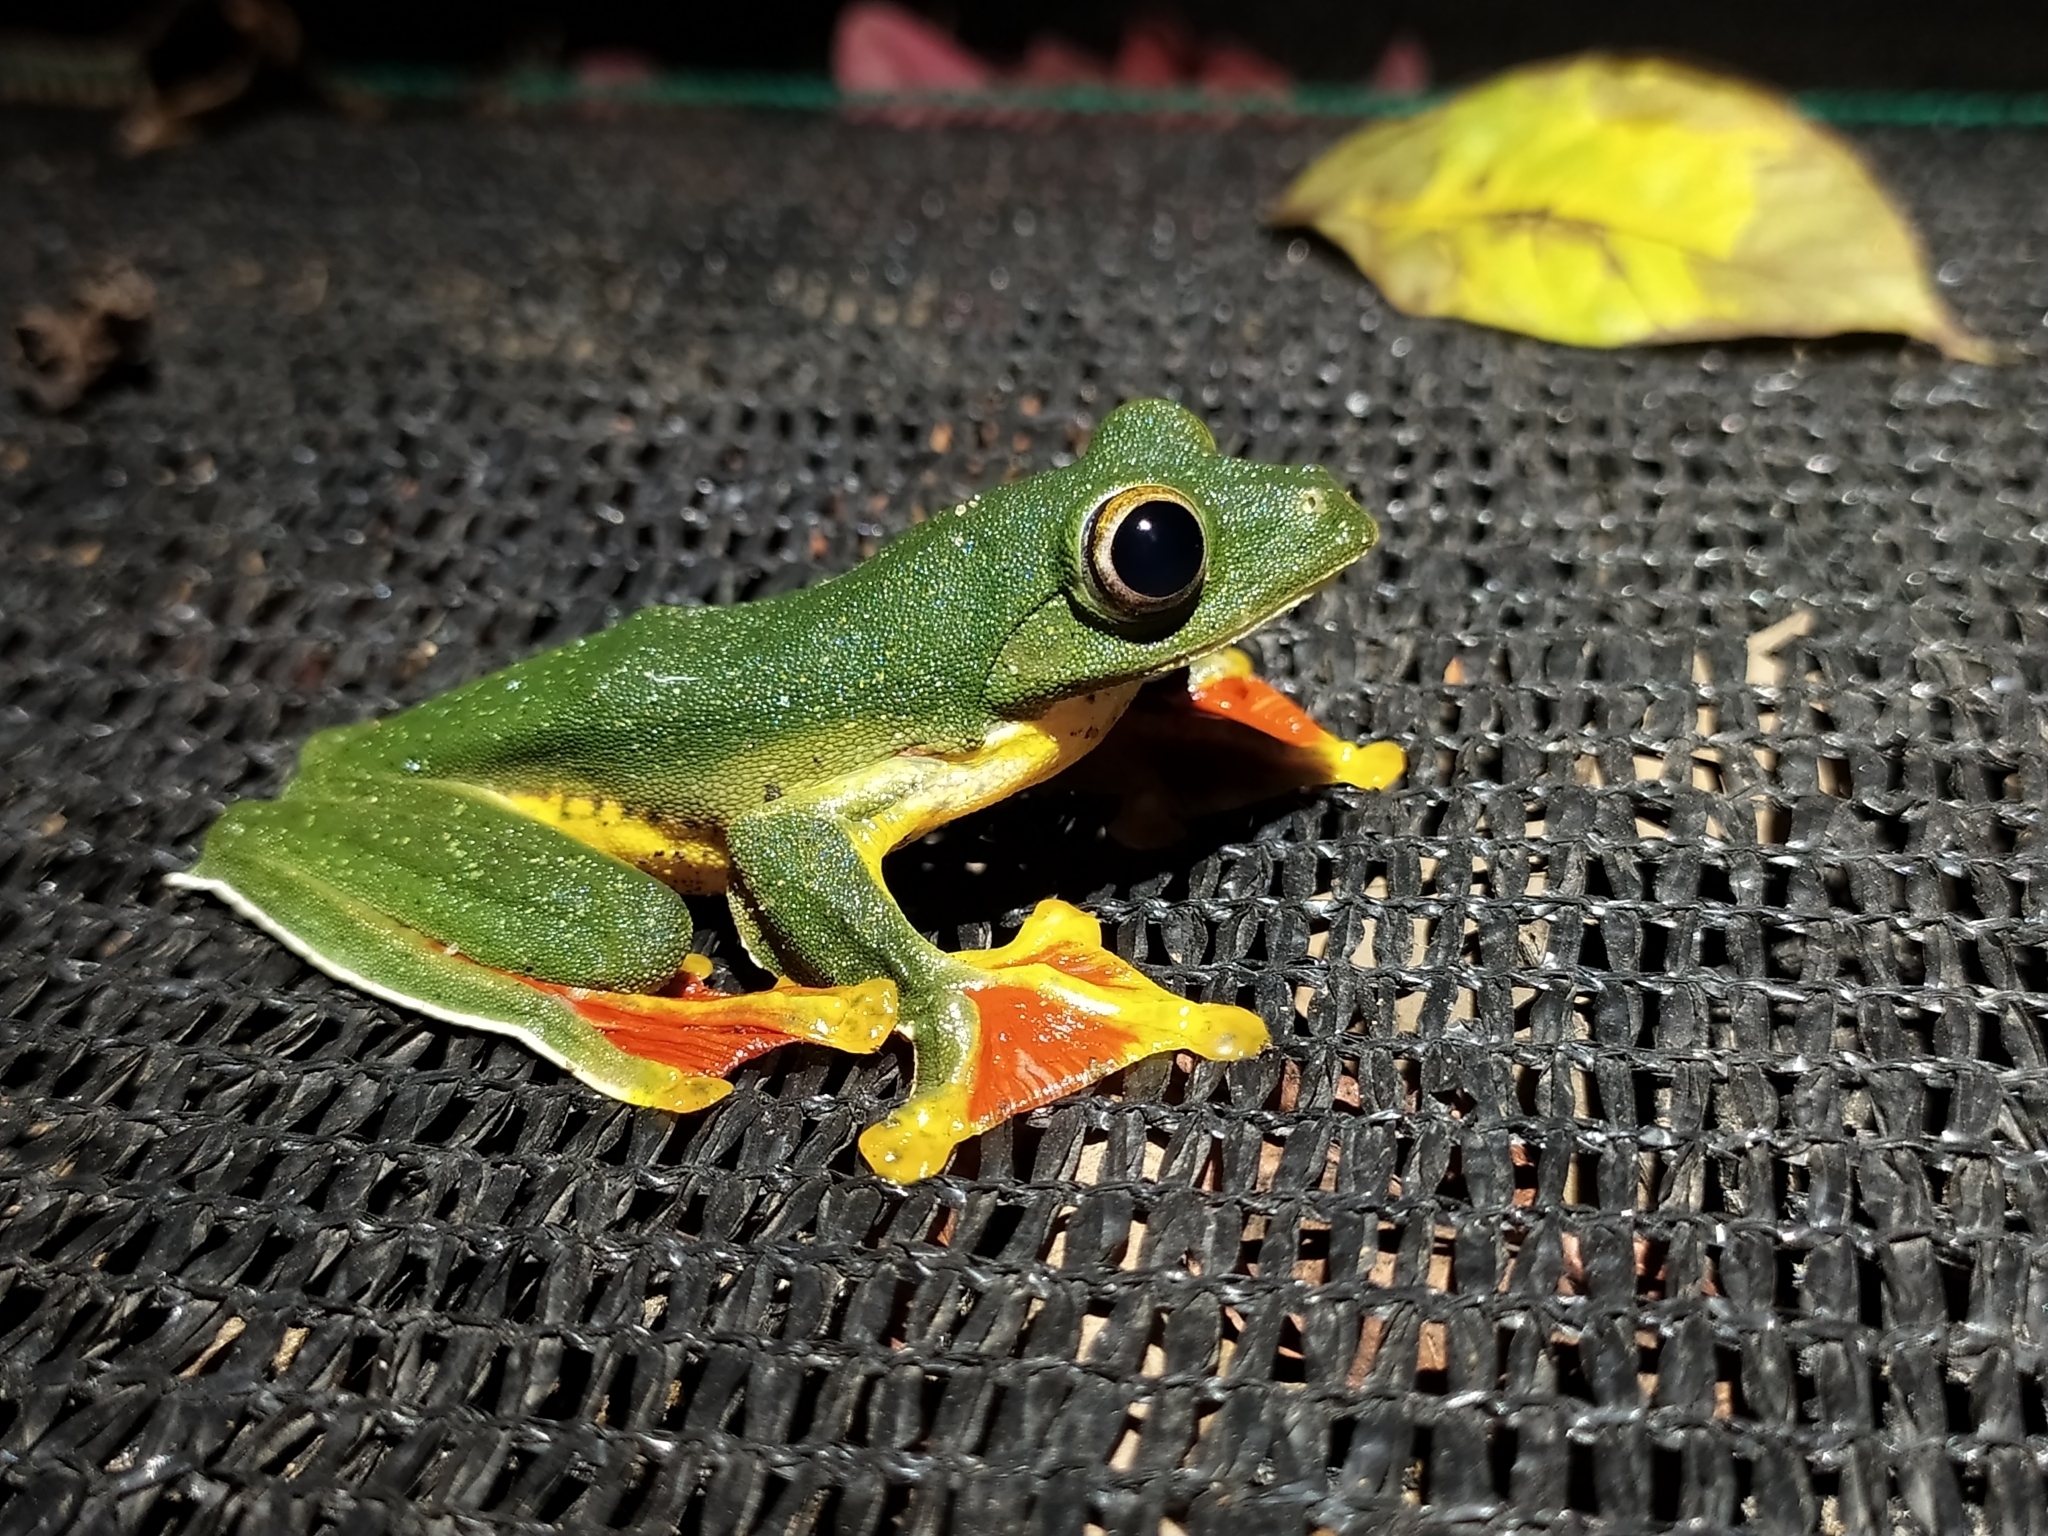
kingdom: Animalia
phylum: Chordata
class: Amphibia
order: Anura
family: Rhacophoridae
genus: Rhacophorus
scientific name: Rhacophorus malabaricus
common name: Malabar gliding frog
